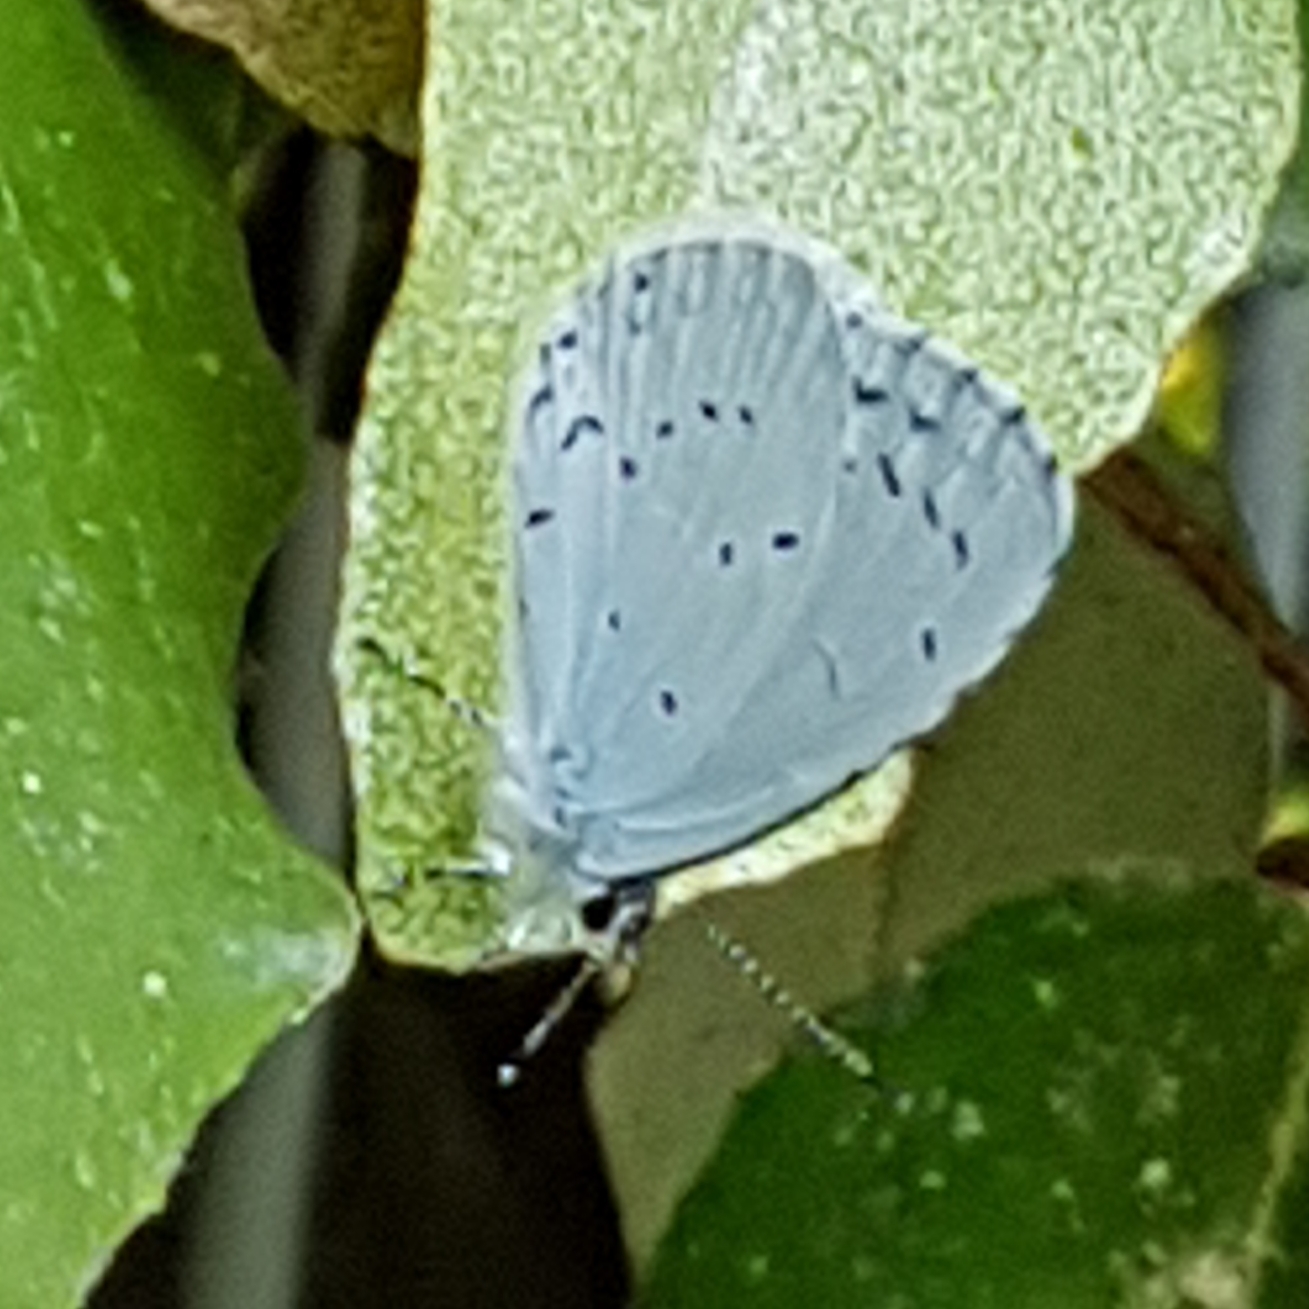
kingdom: Animalia
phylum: Arthropoda
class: Insecta
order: Lepidoptera
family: Lycaenidae
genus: Celastrina
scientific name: Celastrina argiolus
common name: Holly blue
